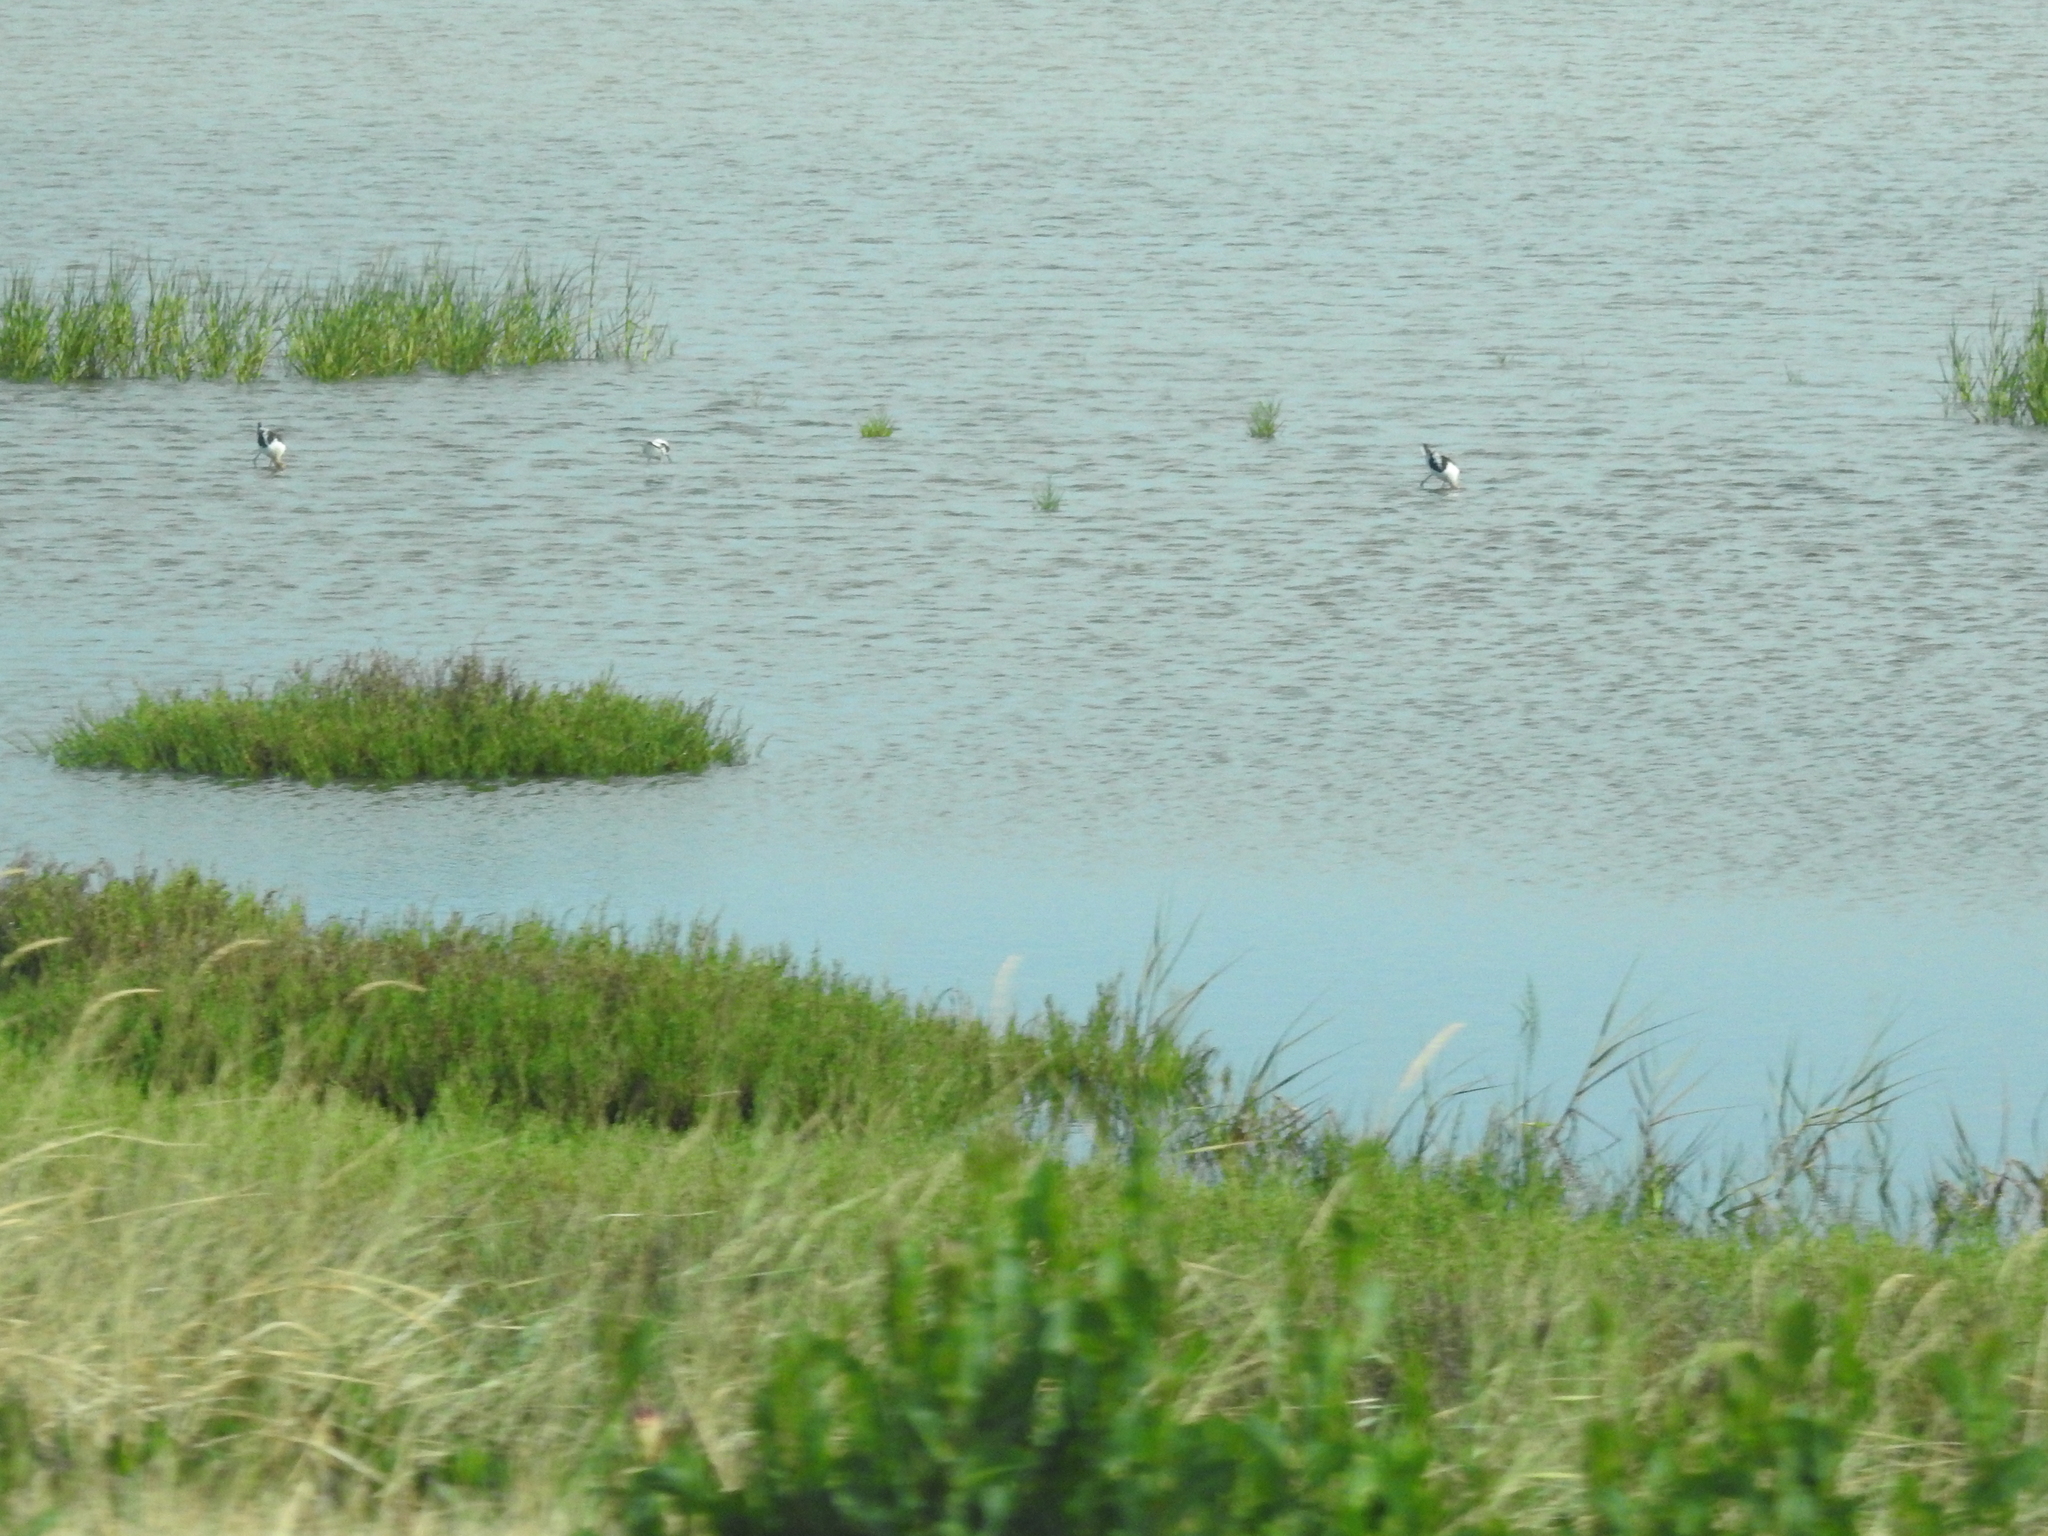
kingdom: Animalia
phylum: Chordata
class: Aves
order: Charadriiformes
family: Recurvirostridae
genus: Recurvirostra
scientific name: Recurvirostra americana
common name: American avocet
